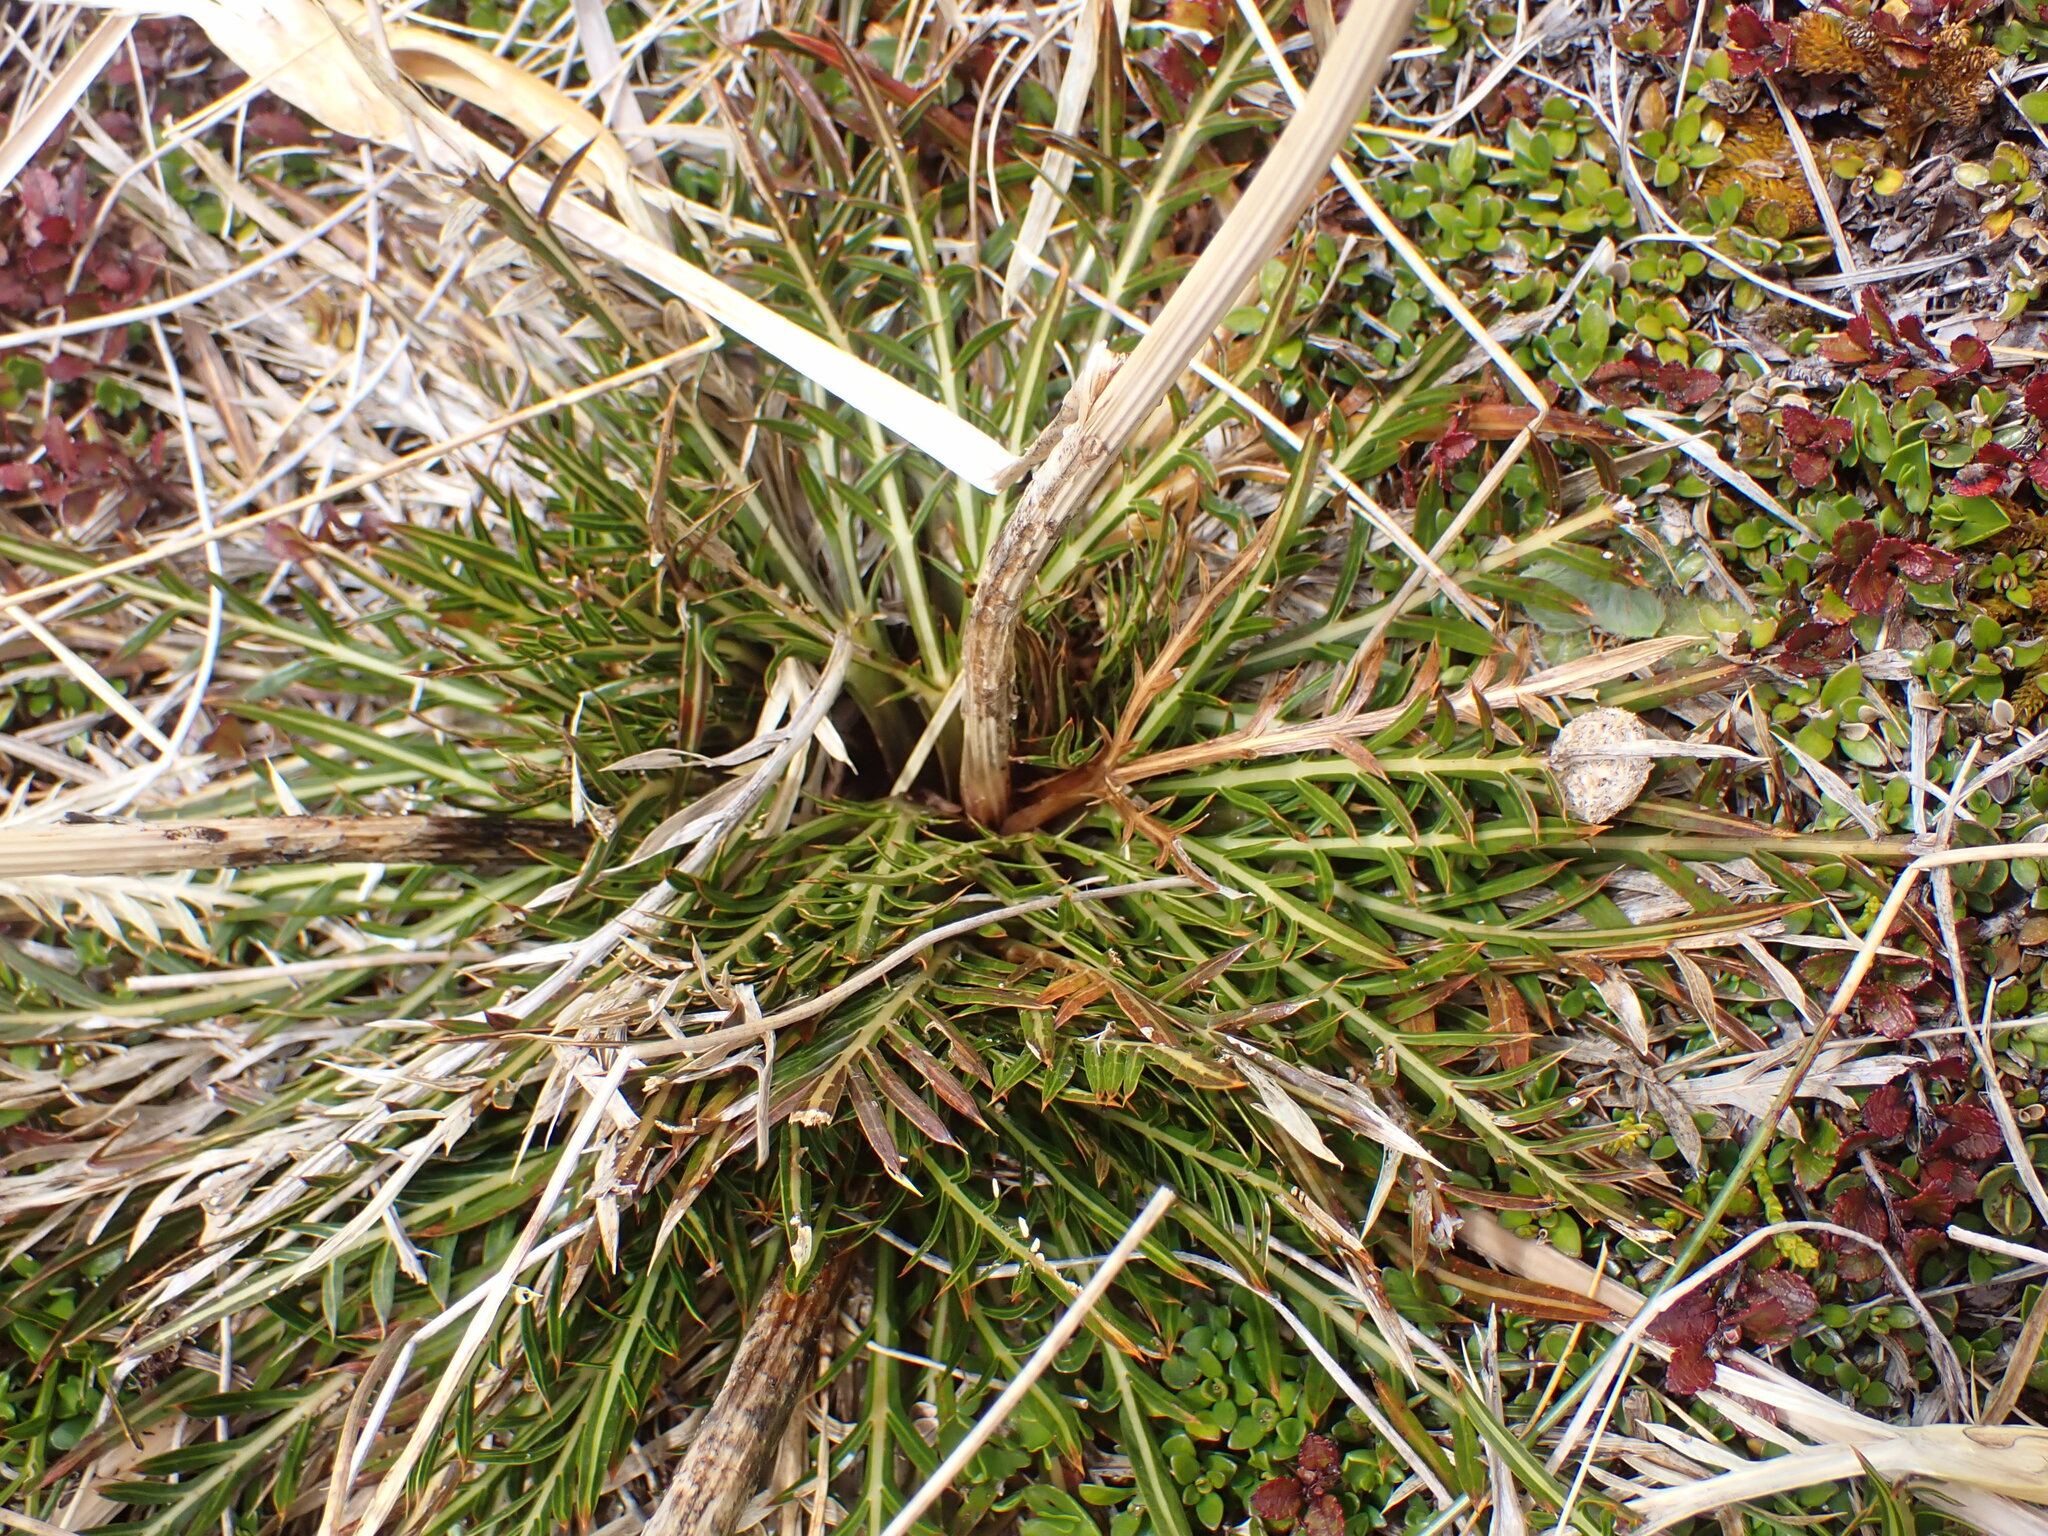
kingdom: Plantae
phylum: Tracheophyta
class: Magnoliopsida
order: Apiales
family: Apiaceae
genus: Aciphylla
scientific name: Aciphylla pinnatifida
